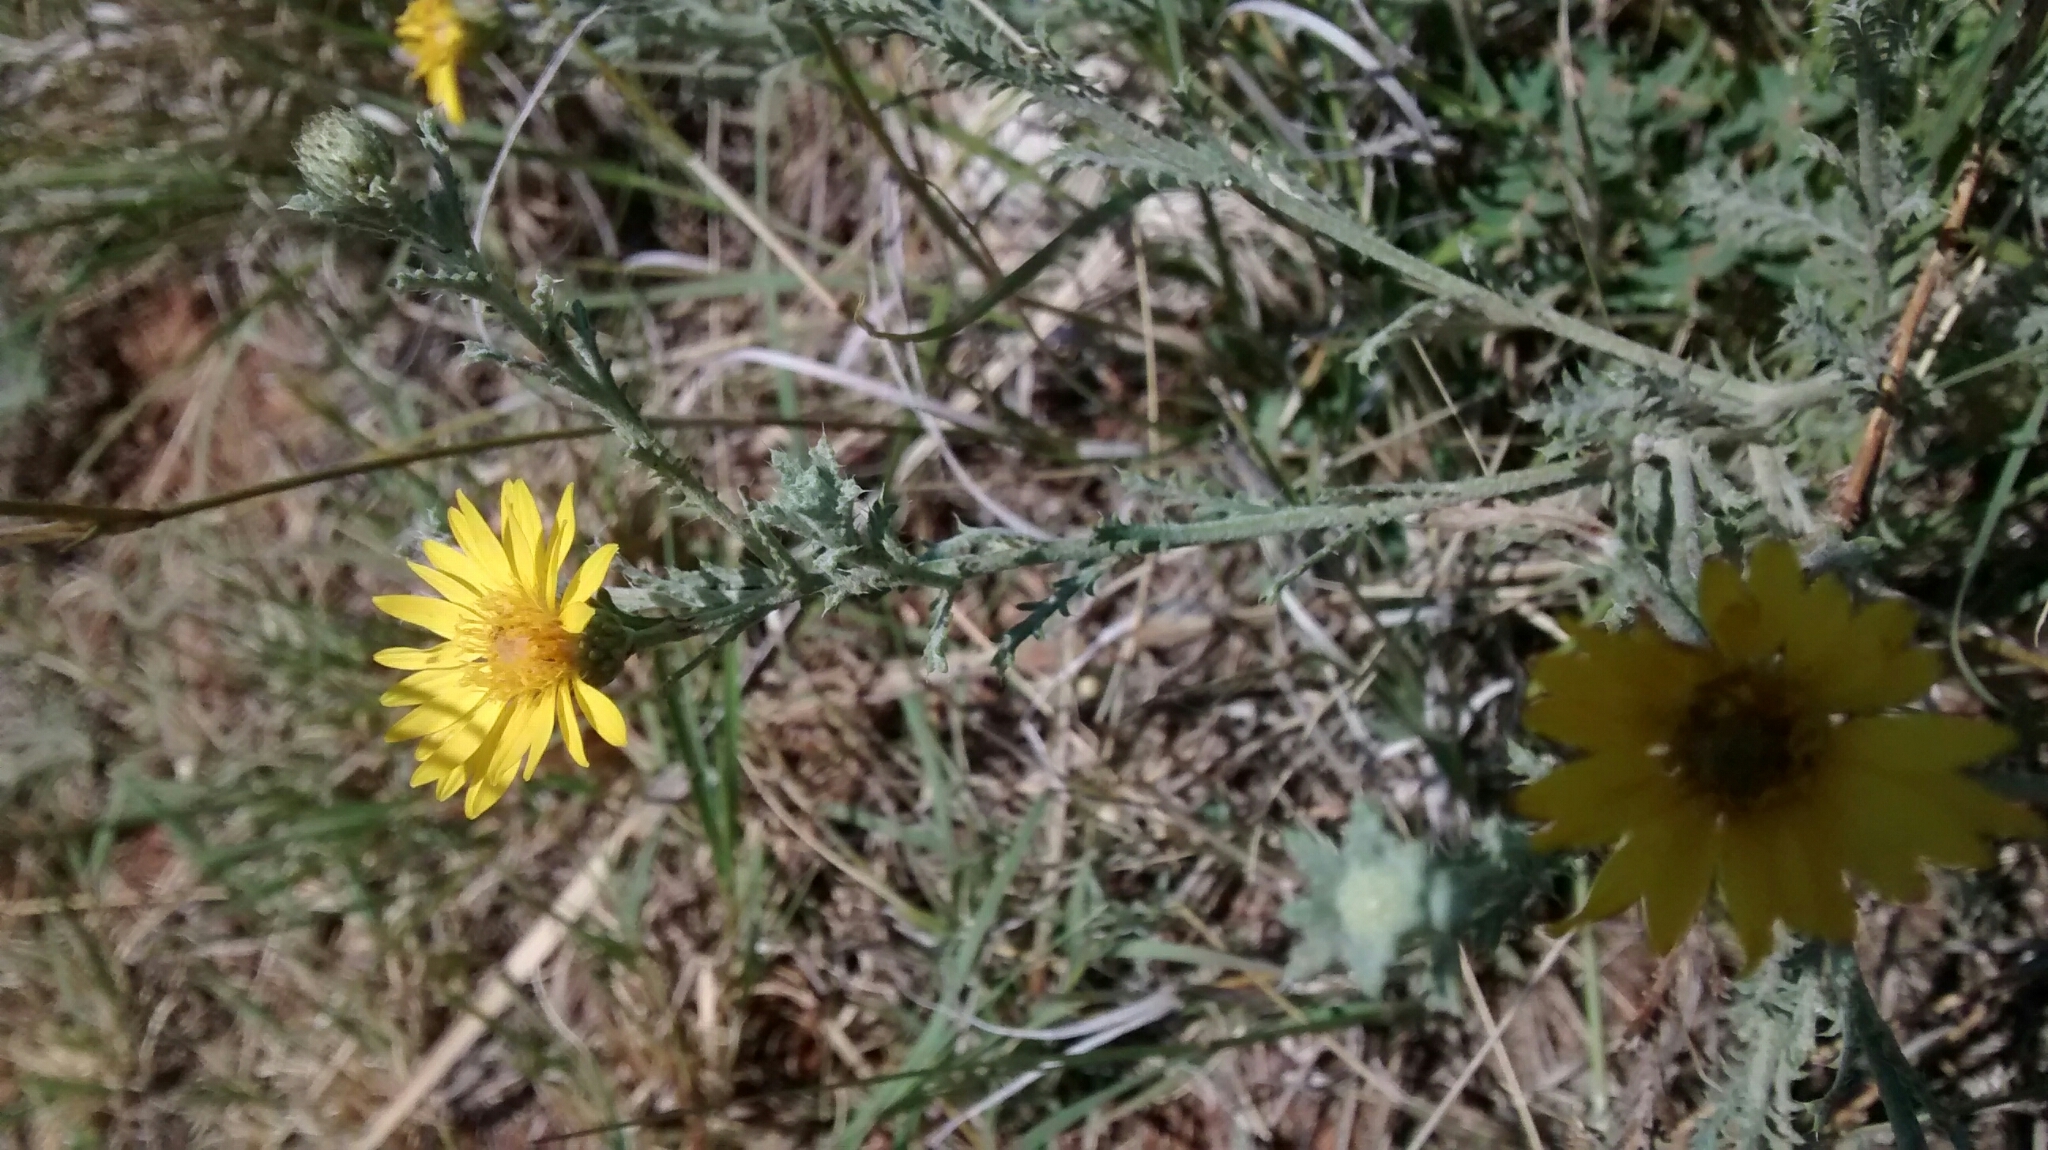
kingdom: Plantae
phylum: Tracheophyta
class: Magnoliopsida
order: Asterales
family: Asteraceae
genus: Xanthisma
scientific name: Xanthisma spinulosum
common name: Spiny goldenweed
